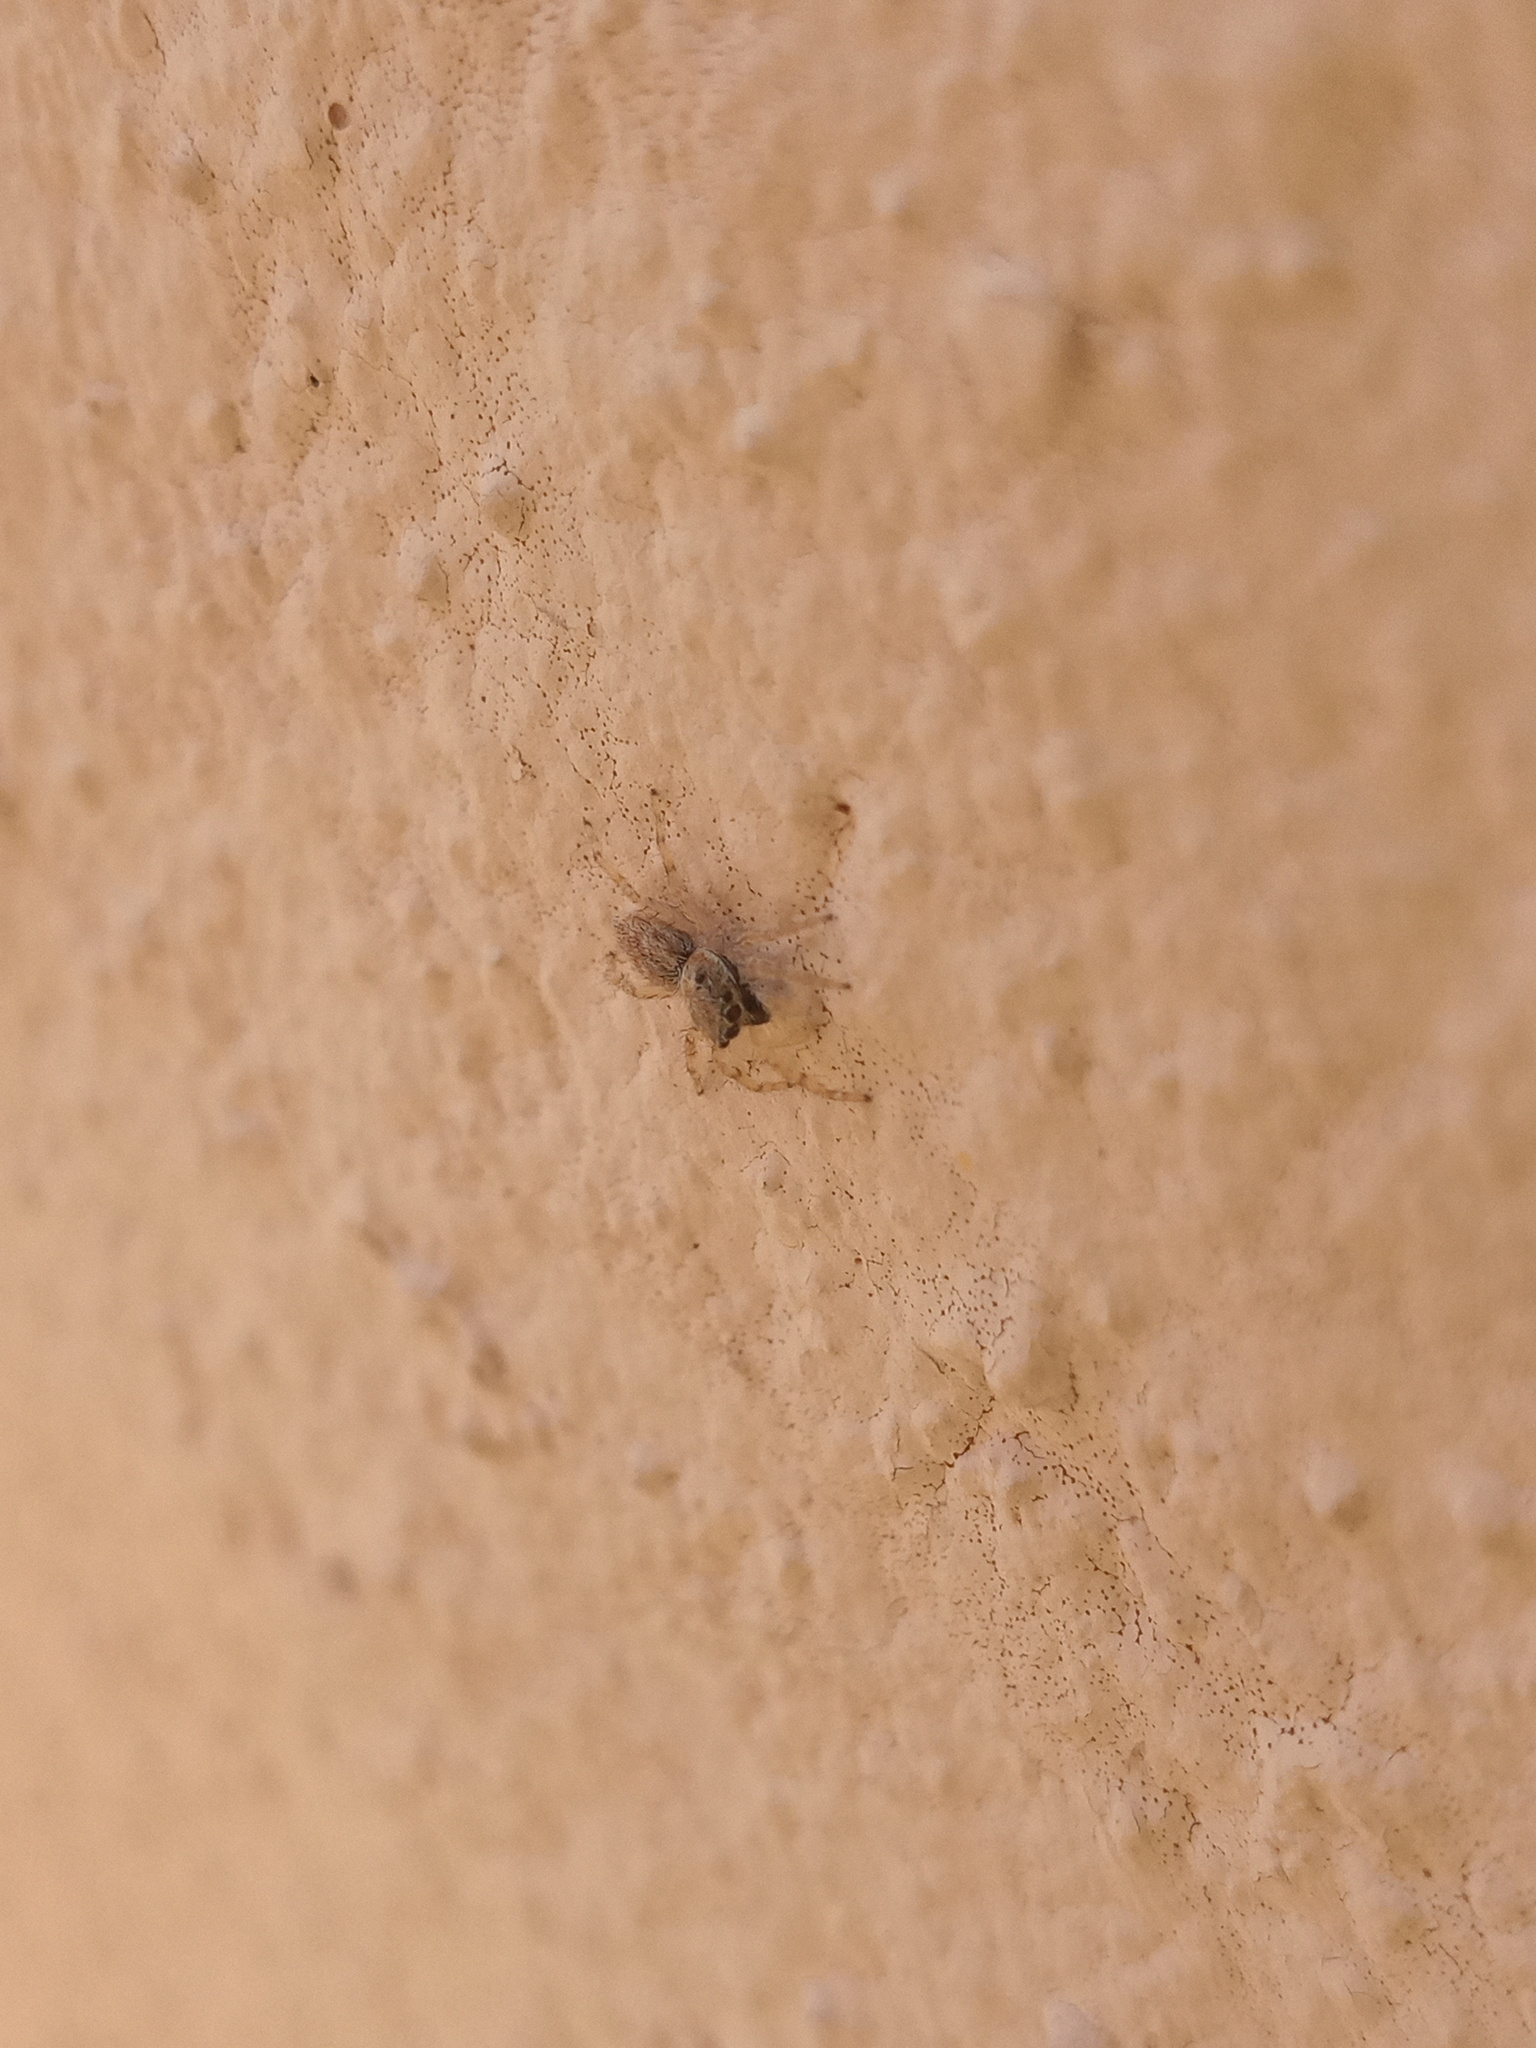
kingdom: Animalia
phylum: Arthropoda
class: Arachnida
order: Araneae
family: Salticidae
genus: Menemerus
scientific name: Menemerus bivittatus
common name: Gray wall jumper
